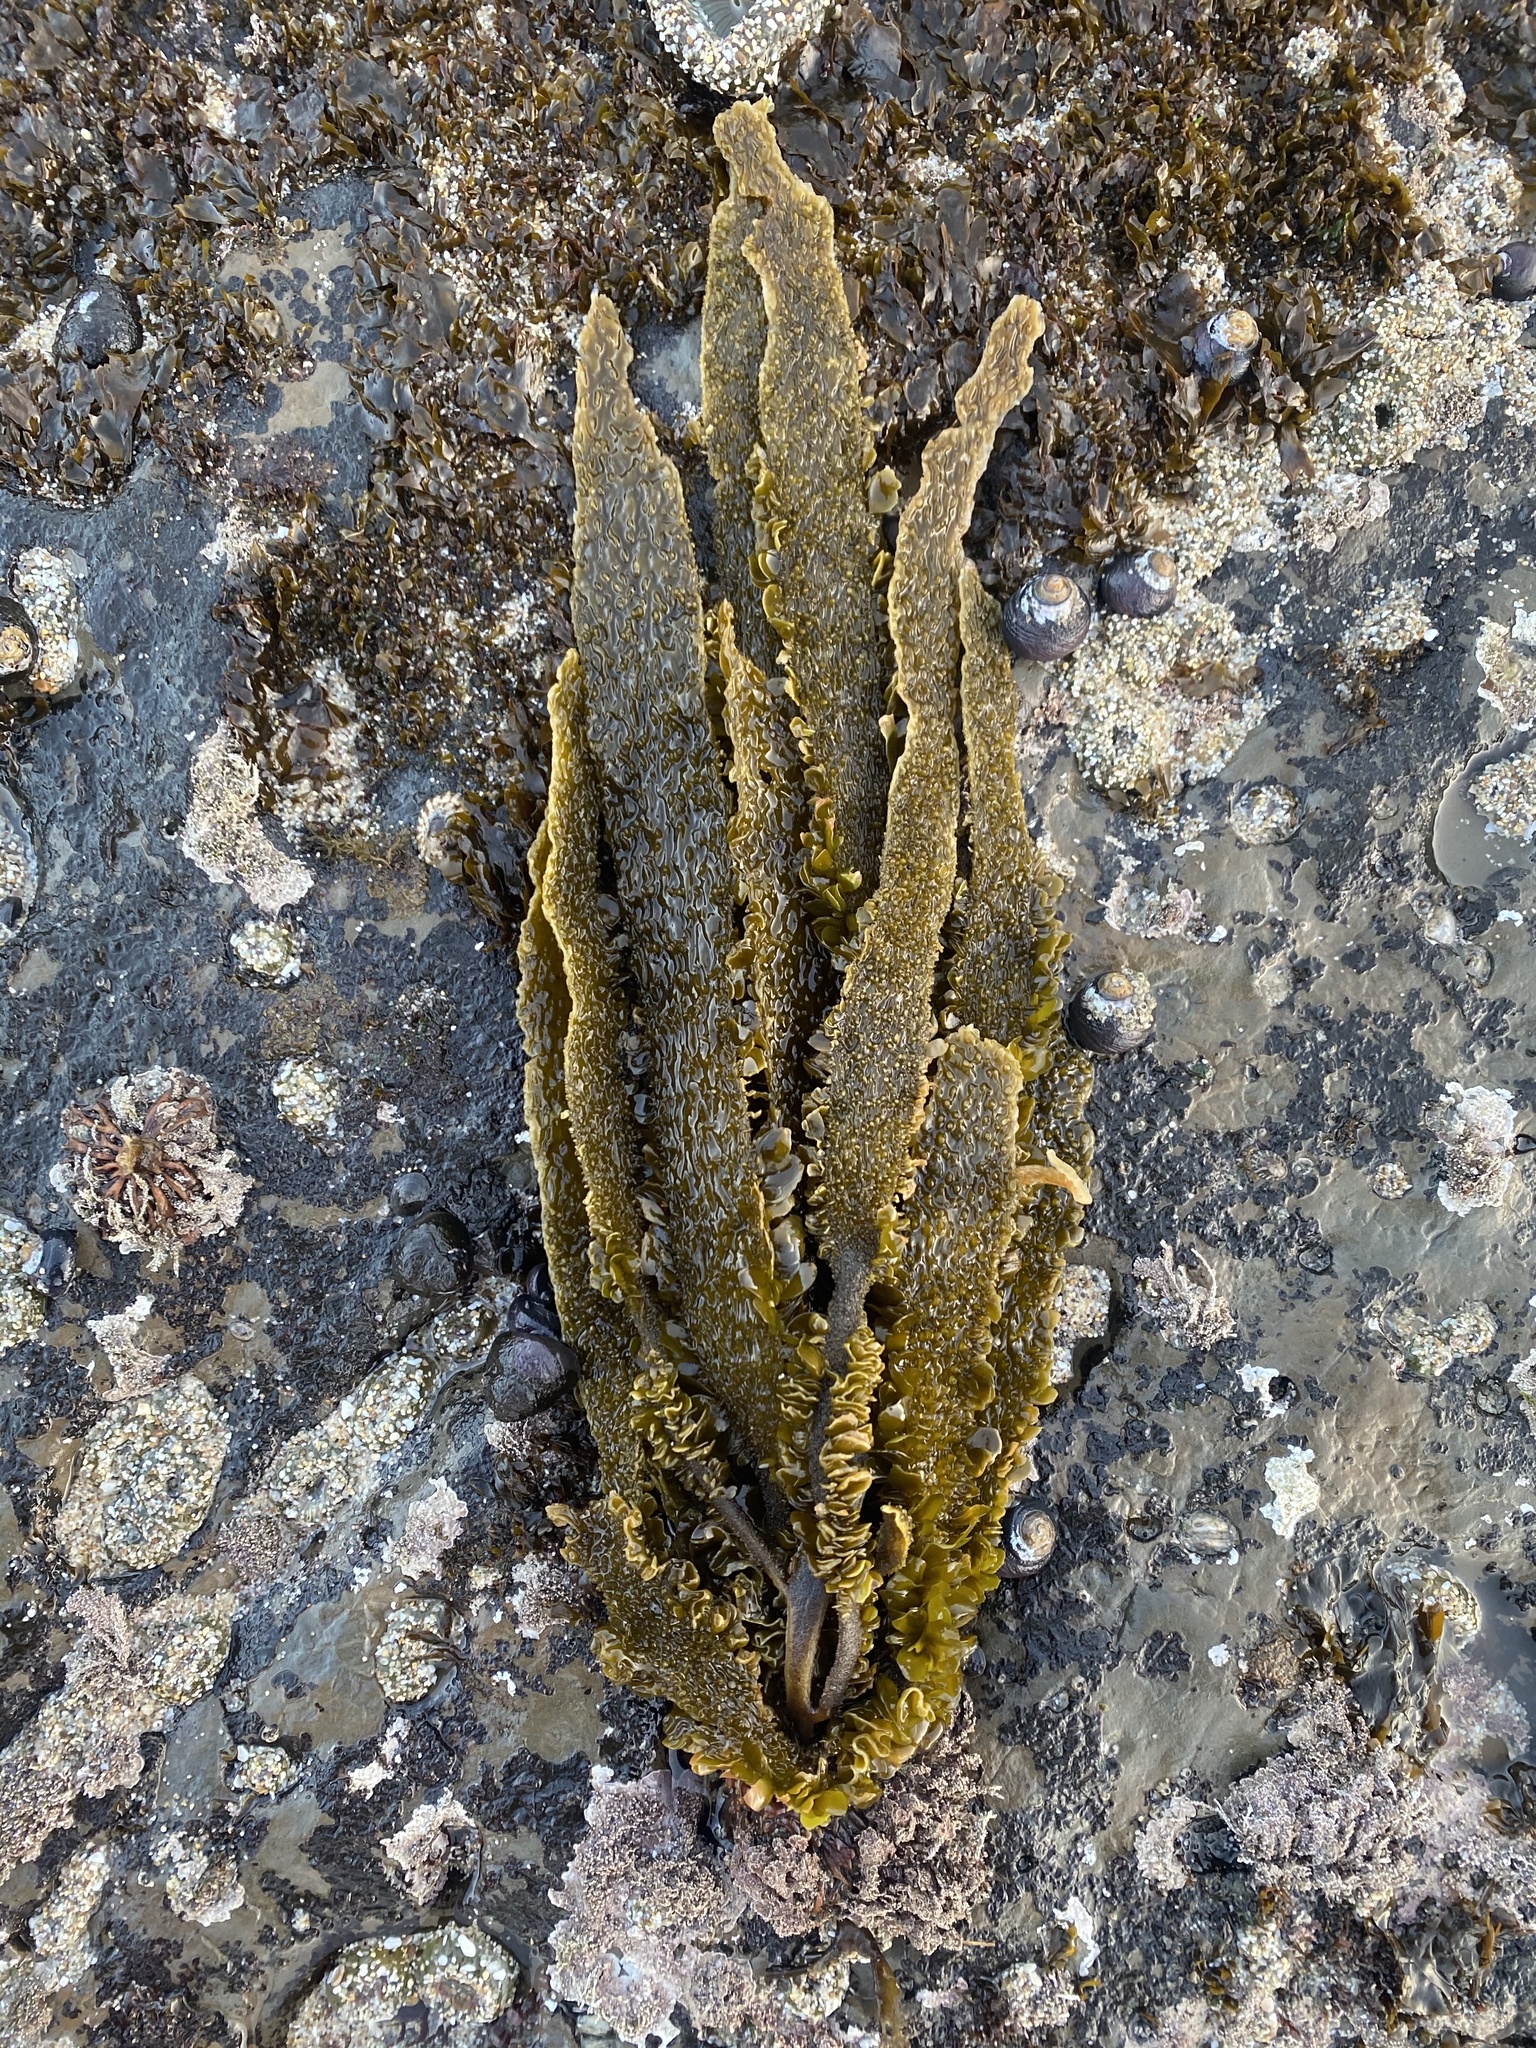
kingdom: Chromista
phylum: Ochrophyta
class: Phaeophyceae
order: Laminariales
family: Lessoniaceae
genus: Egregia
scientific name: Egregia menziesii
